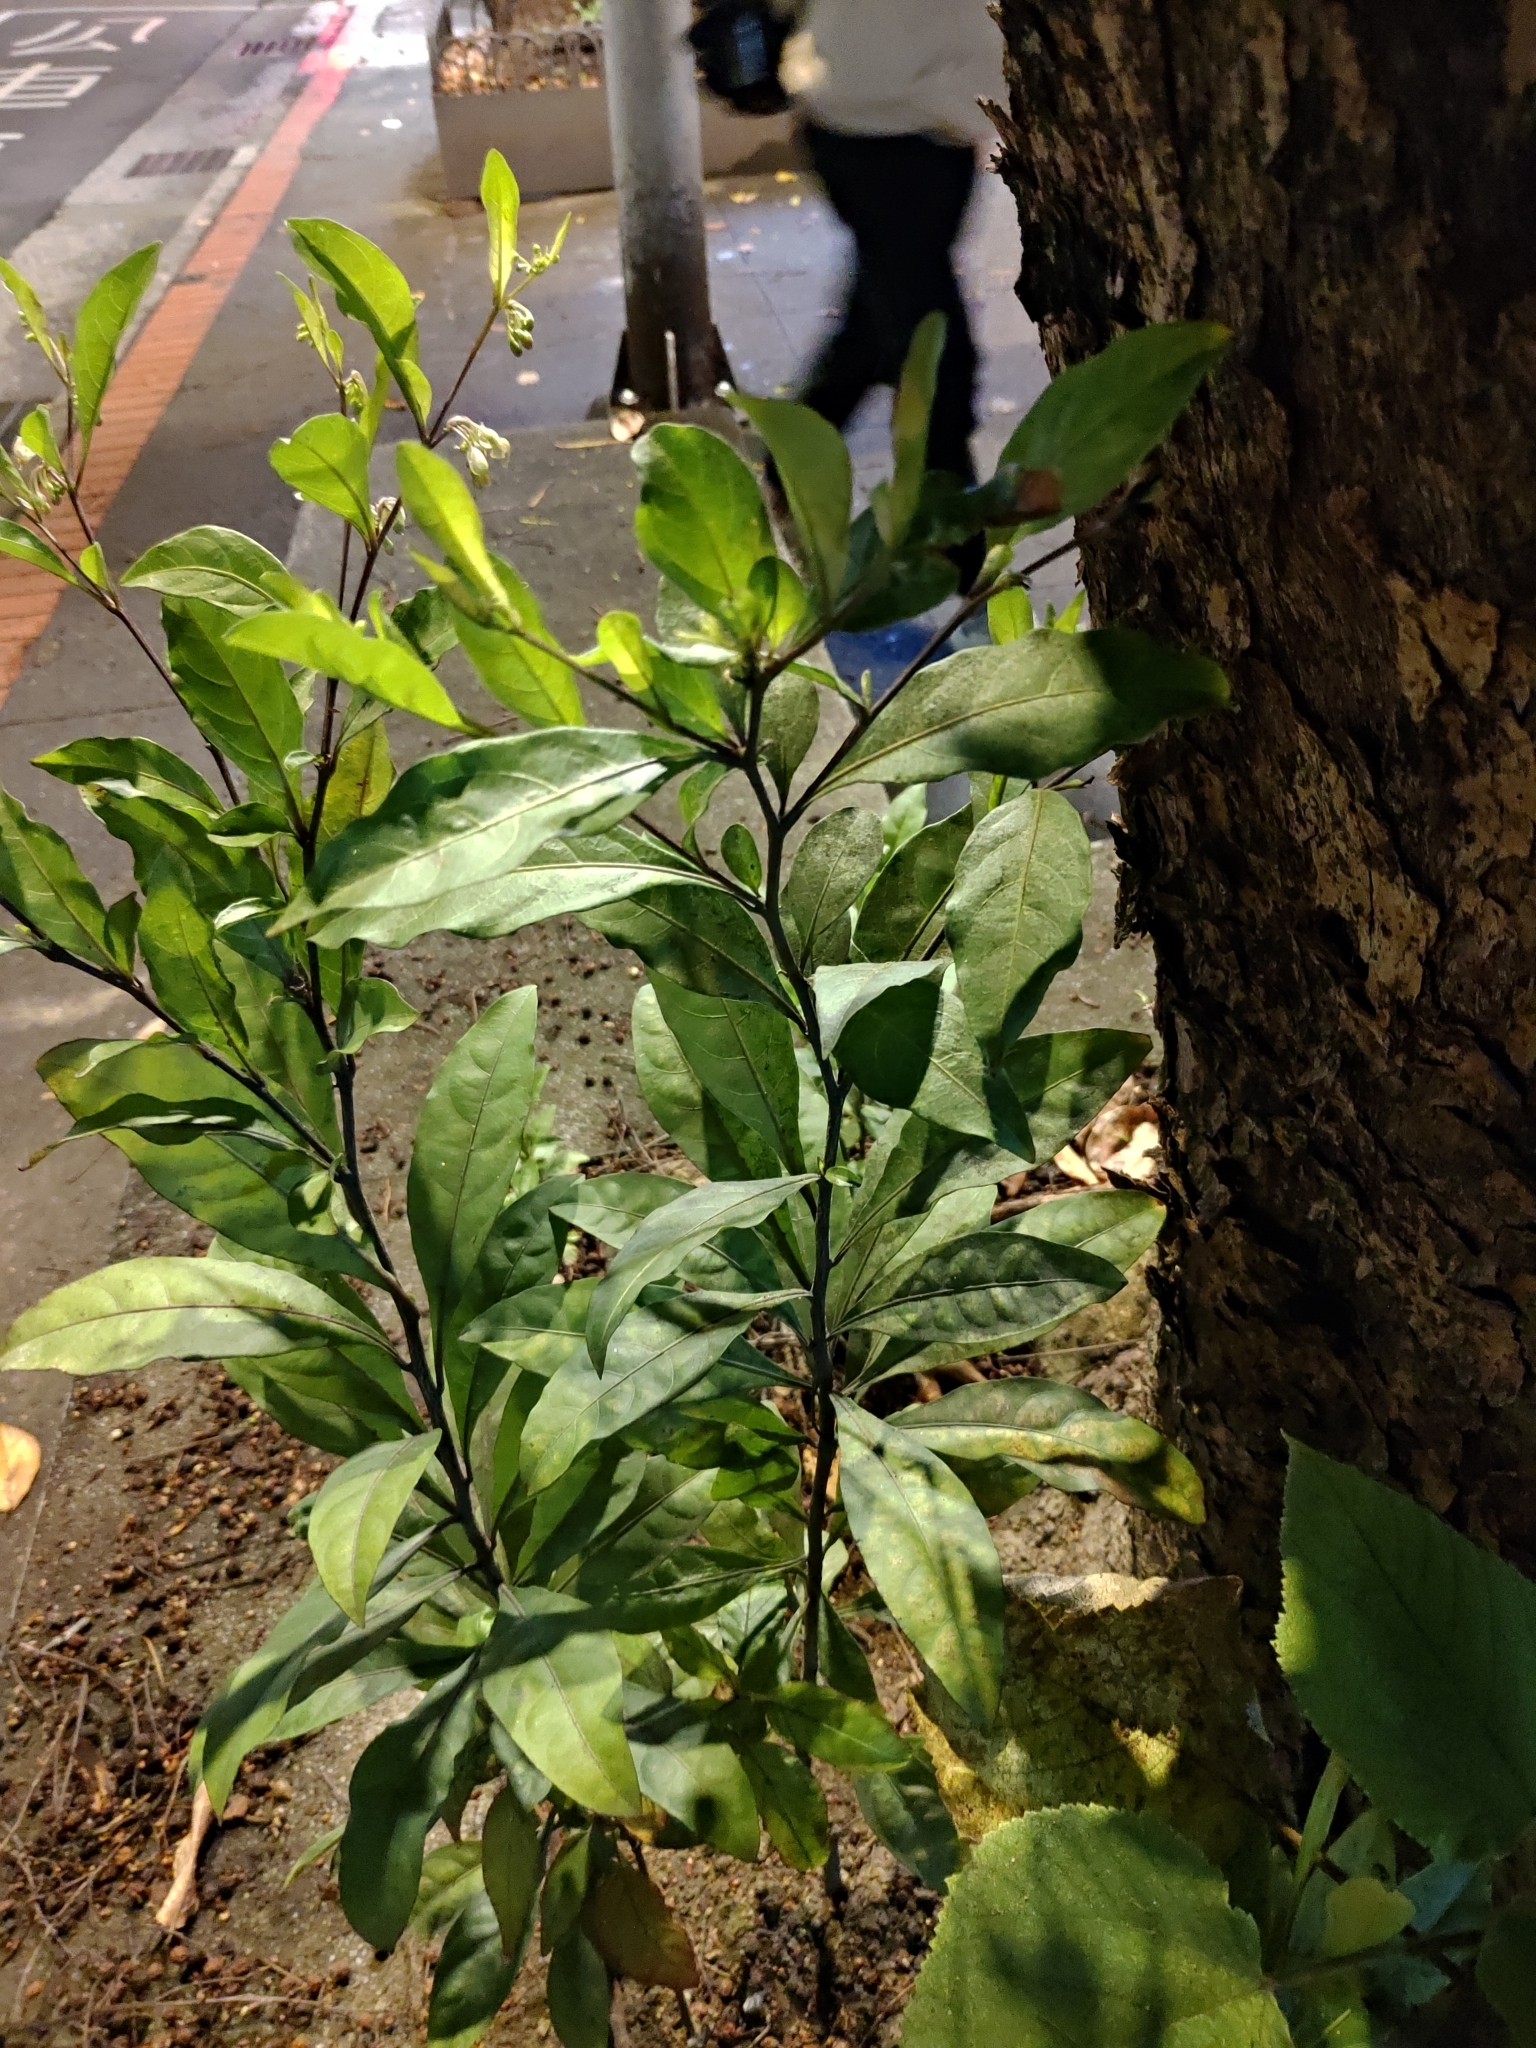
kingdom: Plantae
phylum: Tracheophyta
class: Magnoliopsida
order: Solanales
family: Solanaceae
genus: Solanum
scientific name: Solanum diphyllum
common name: Twoleaf nightshade
